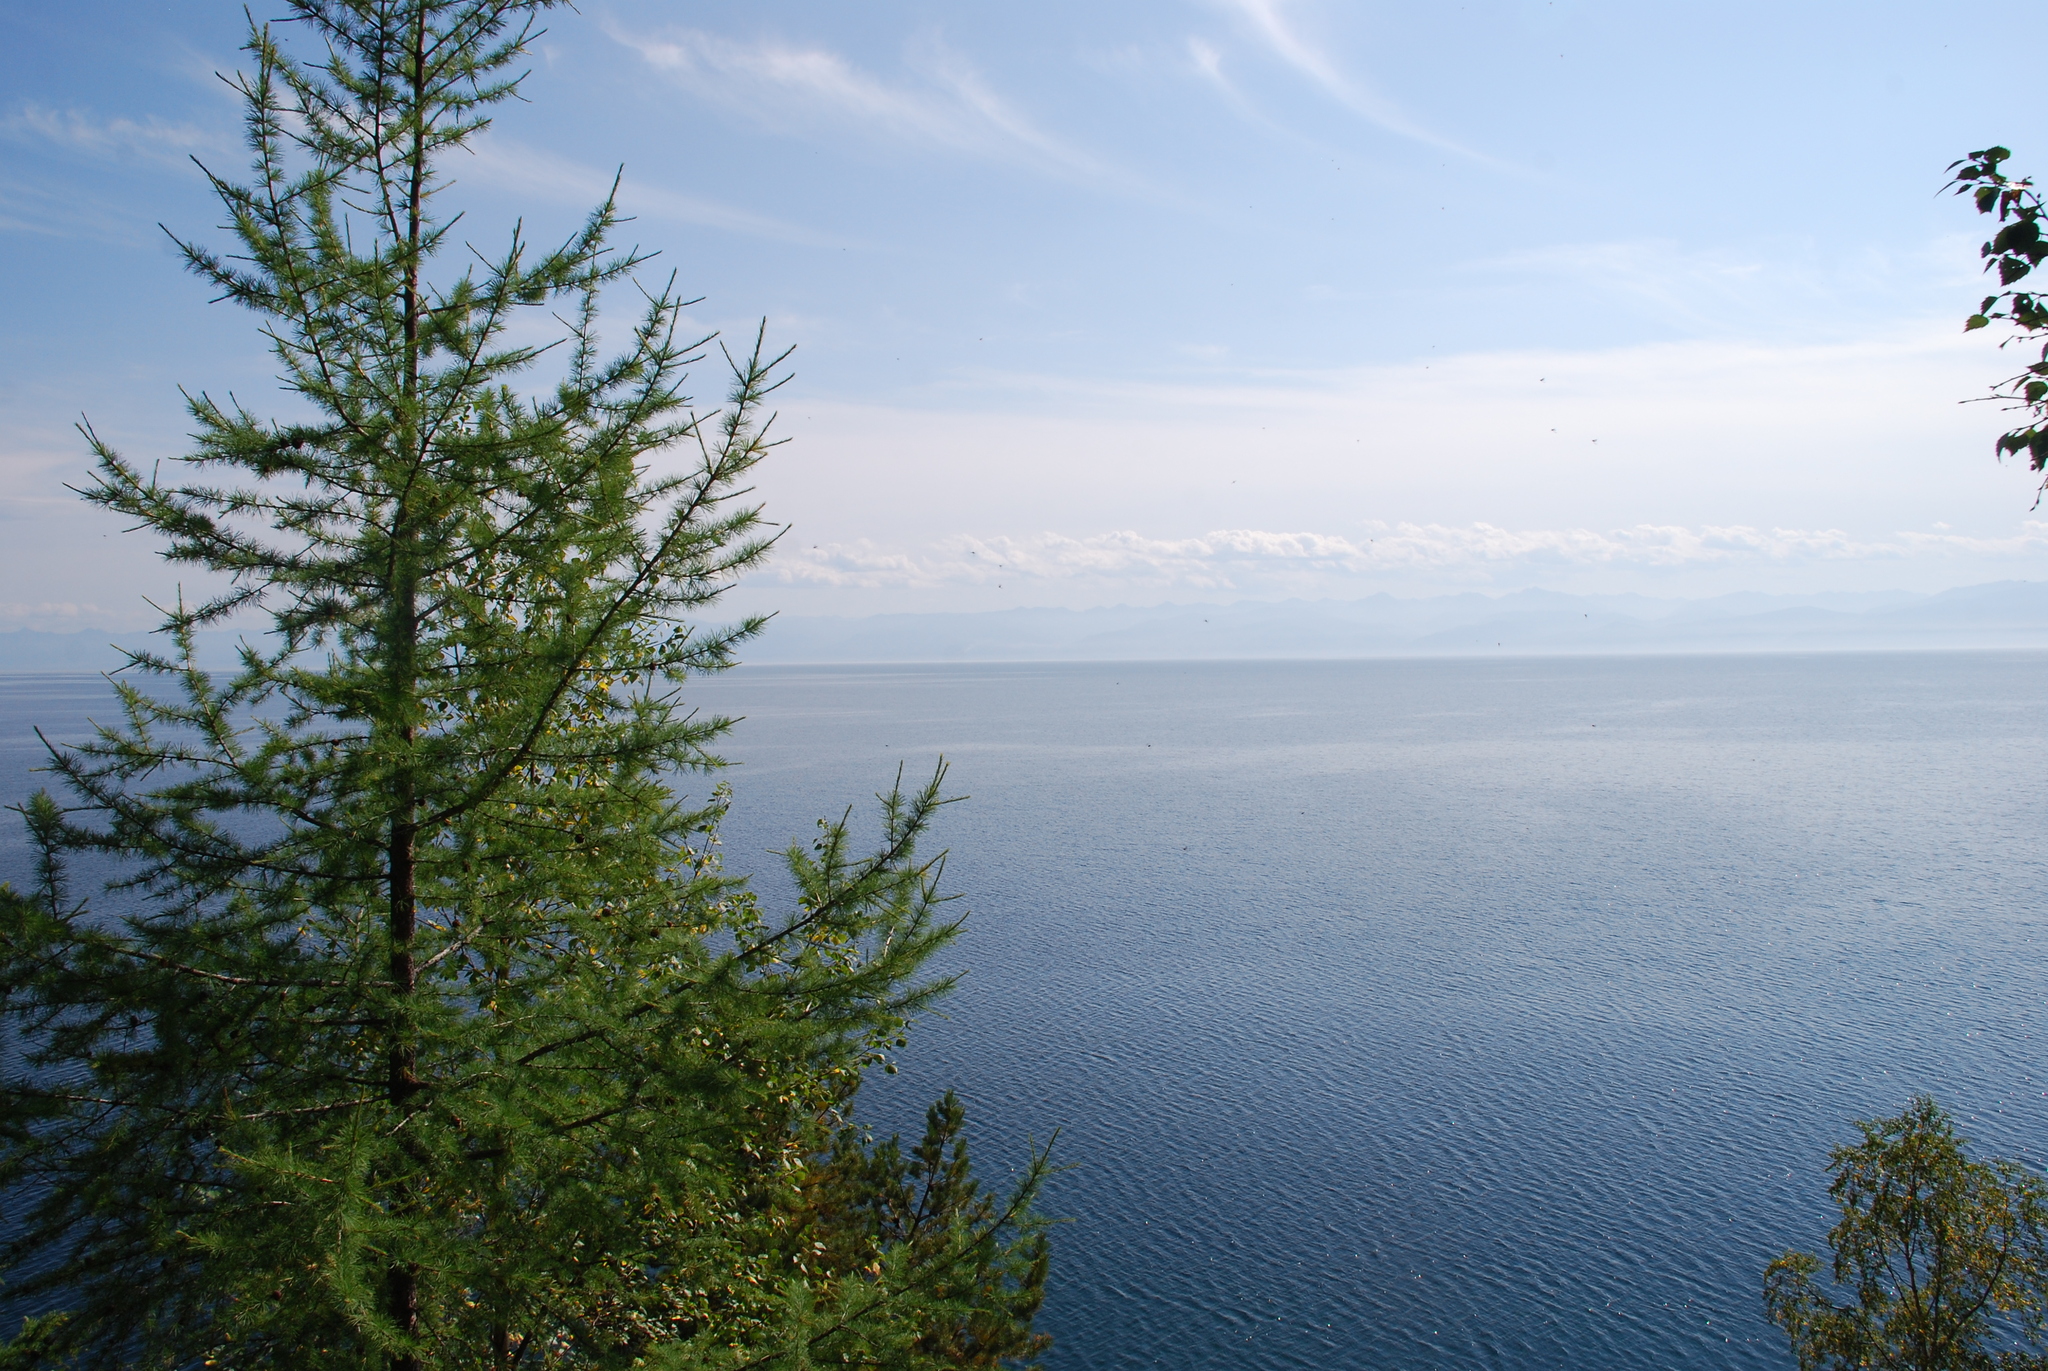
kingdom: Plantae
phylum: Tracheophyta
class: Pinopsida
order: Pinales
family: Pinaceae
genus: Larix
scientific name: Larix sibirica
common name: Siberian larch
